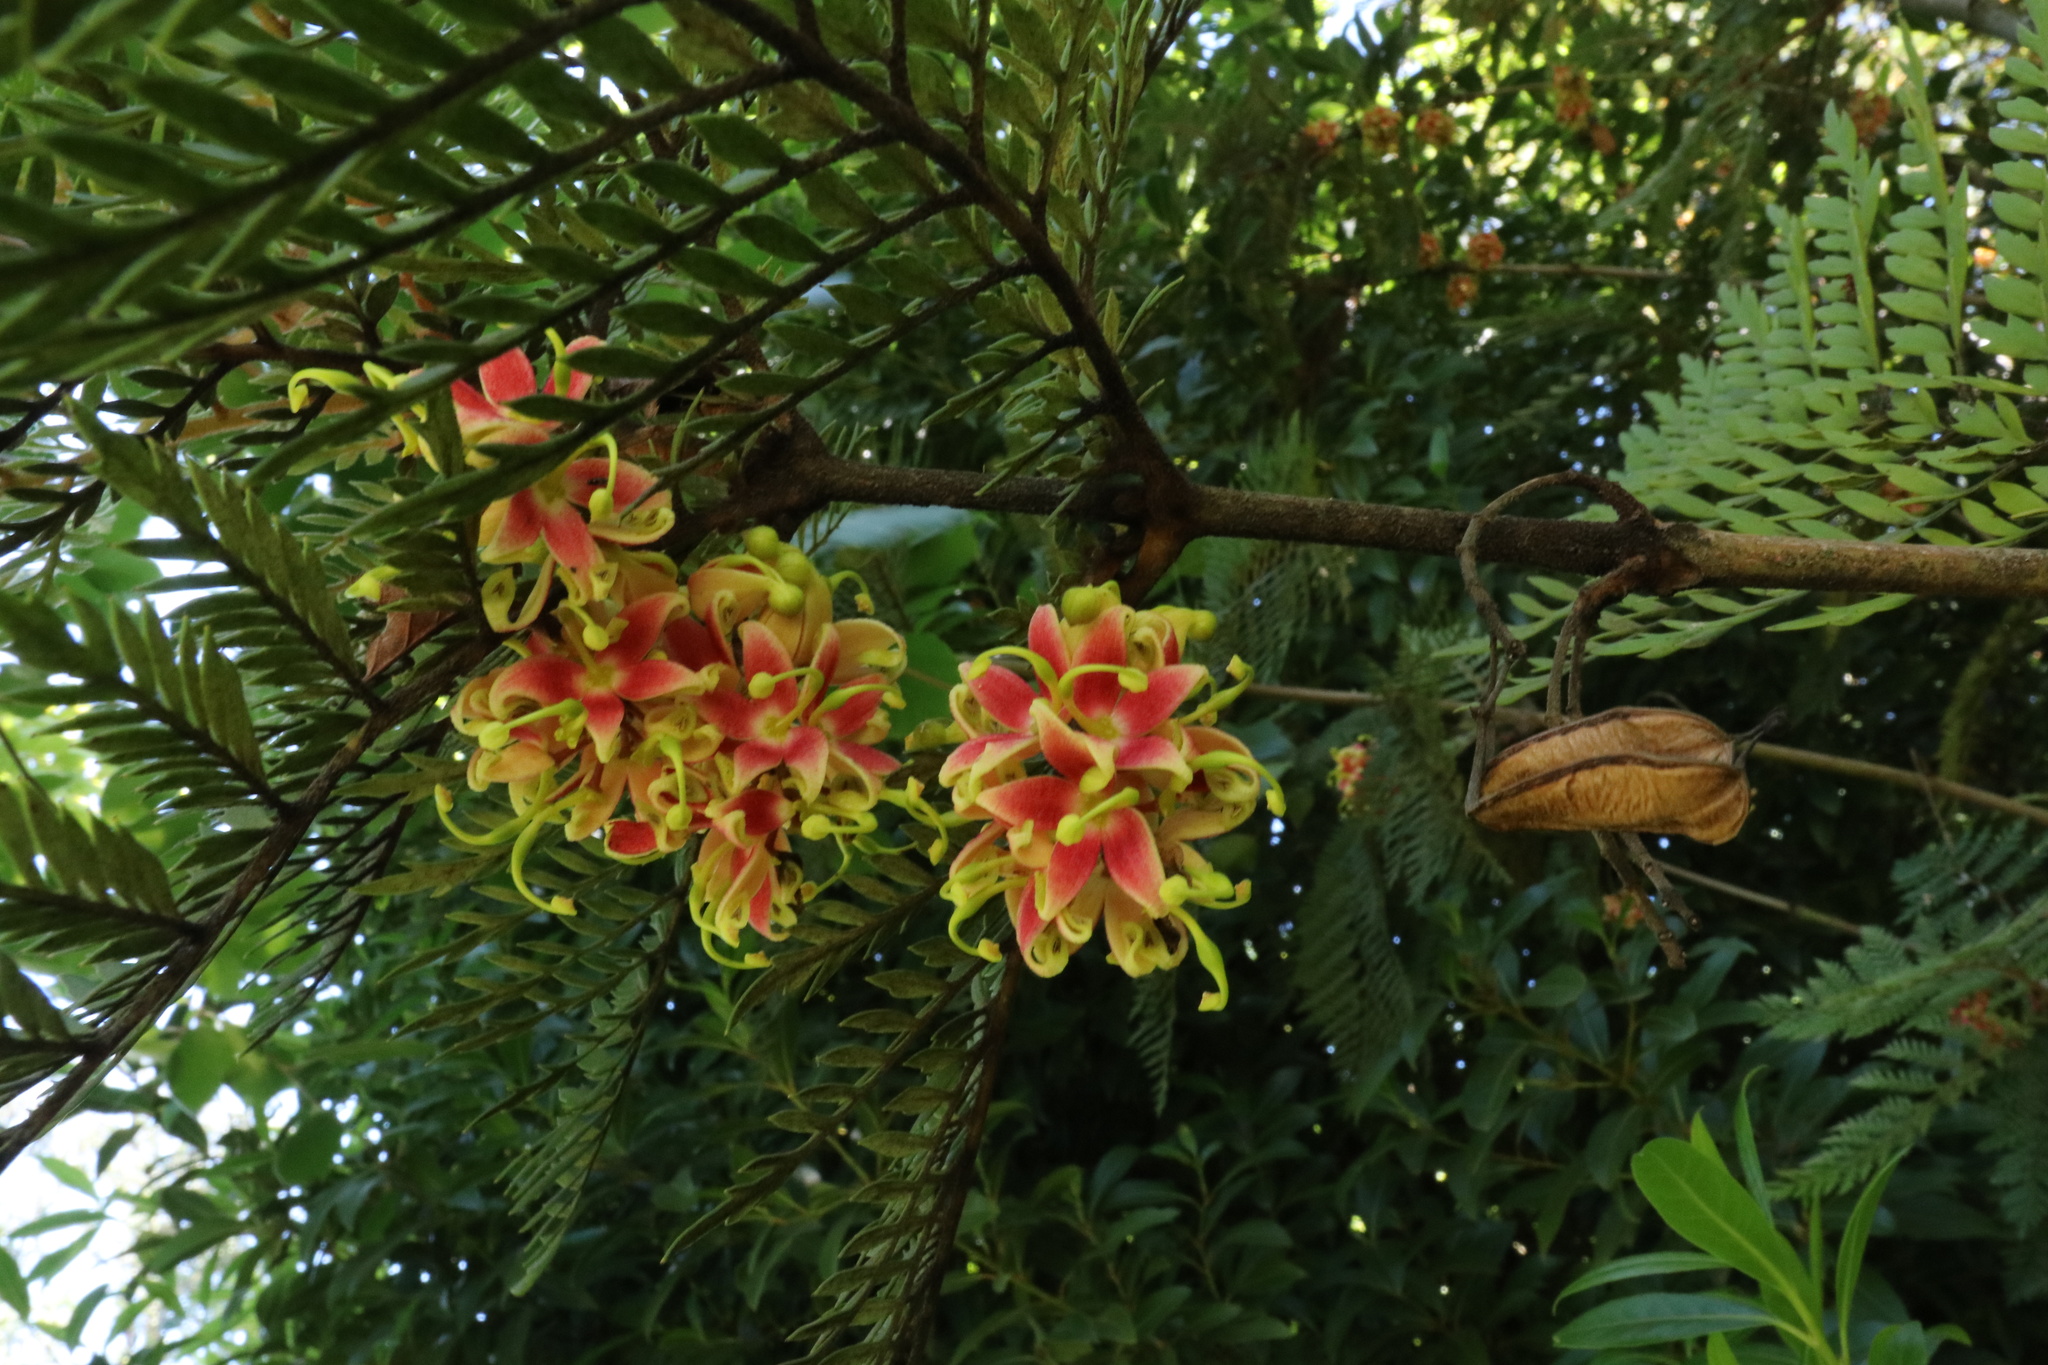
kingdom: Plantae
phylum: Tracheophyta
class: Magnoliopsida
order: Proteales
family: Proteaceae
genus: Lomatia
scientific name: Lomatia ferruginea
